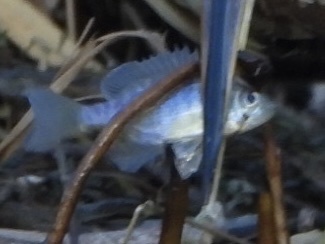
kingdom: Animalia
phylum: Chordata
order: Perciformes
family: Centrarchidae
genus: Lepomis
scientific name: Lepomis macrochirus
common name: Bluegill
